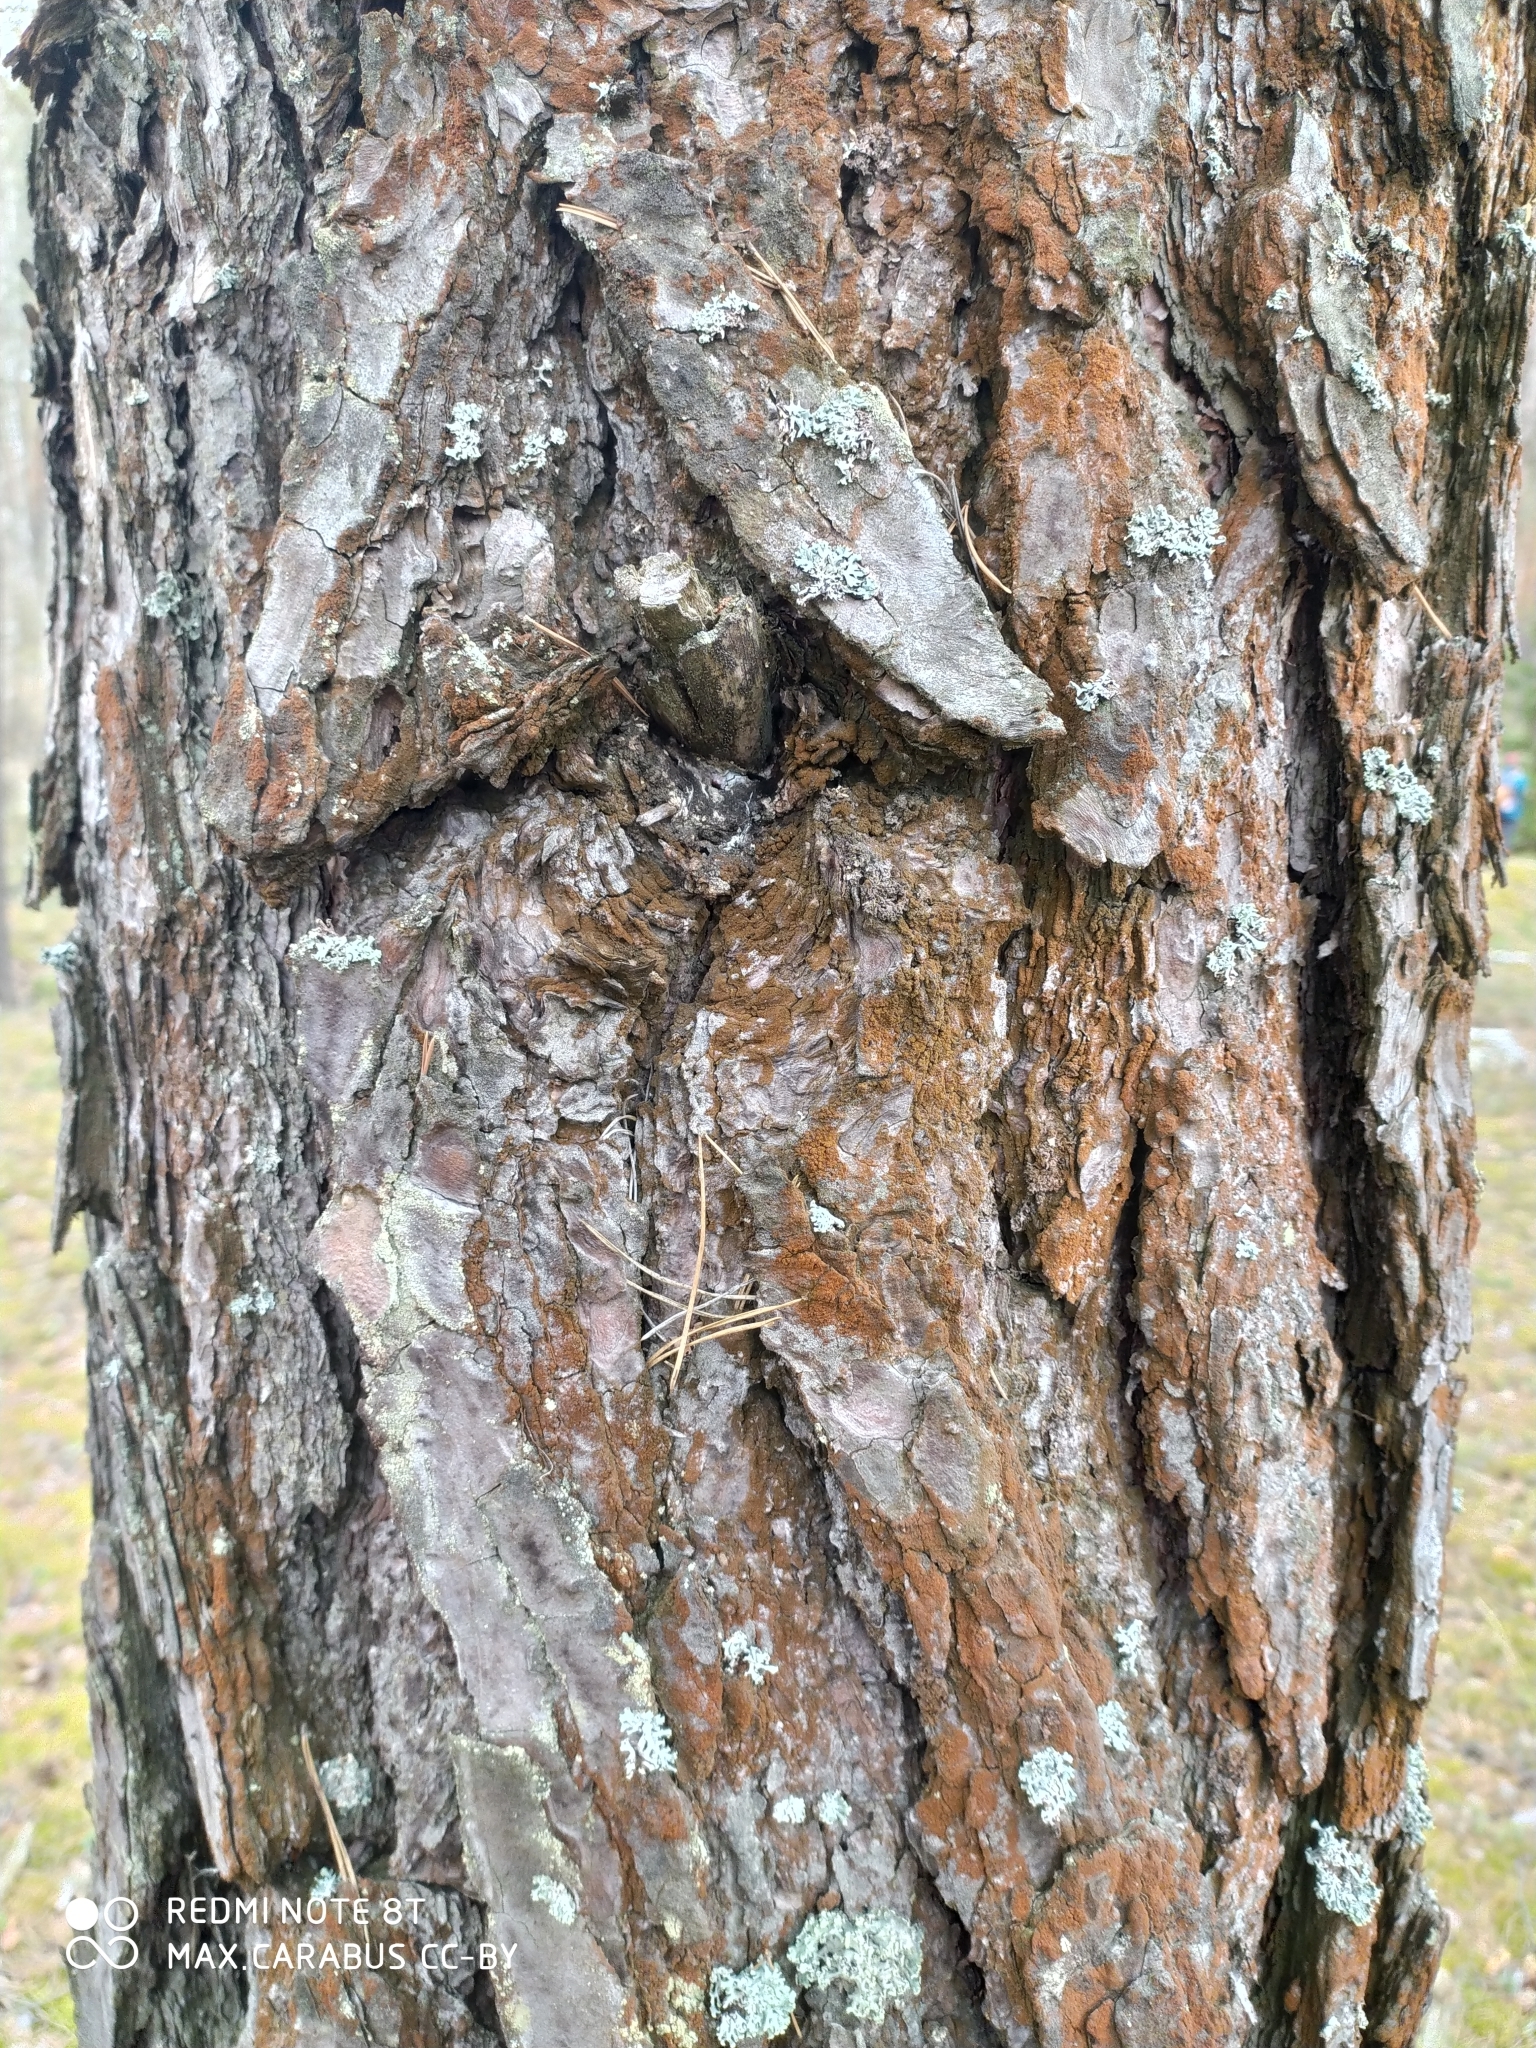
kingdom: Plantae
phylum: Tracheophyta
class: Pinopsida
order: Pinales
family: Pinaceae
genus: Pinus
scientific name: Pinus sylvestris
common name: Scots pine
